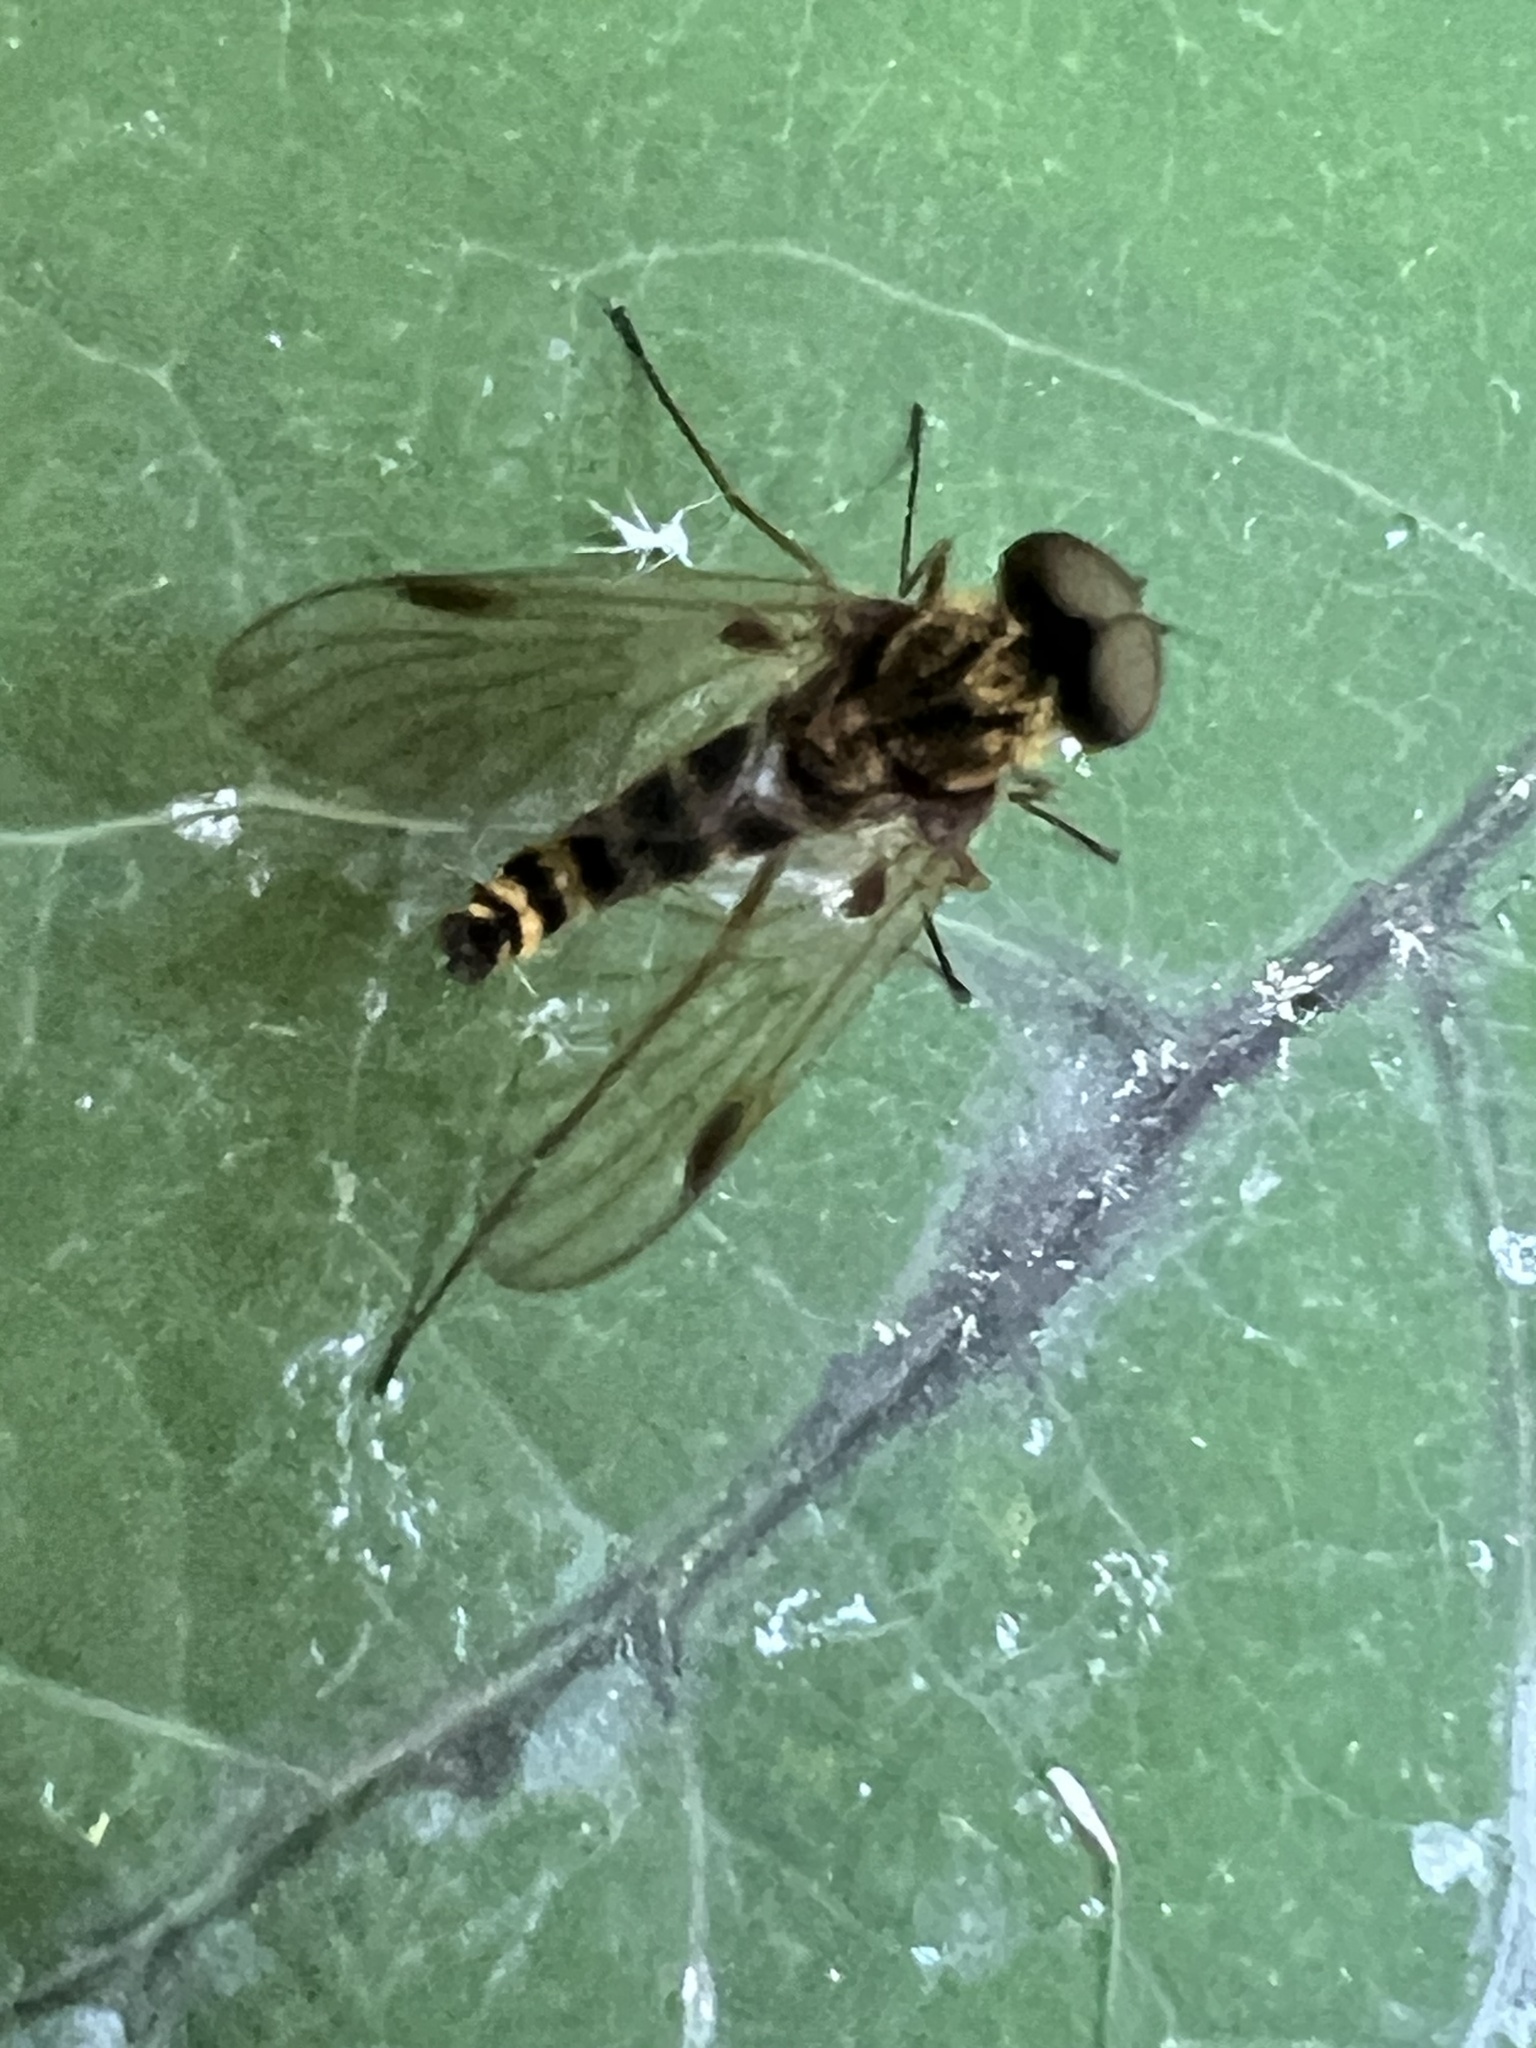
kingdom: Animalia
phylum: Arthropoda
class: Insecta
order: Diptera
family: Rhagionidae
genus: Chrysopilus
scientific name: Chrysopilus fasciatus
